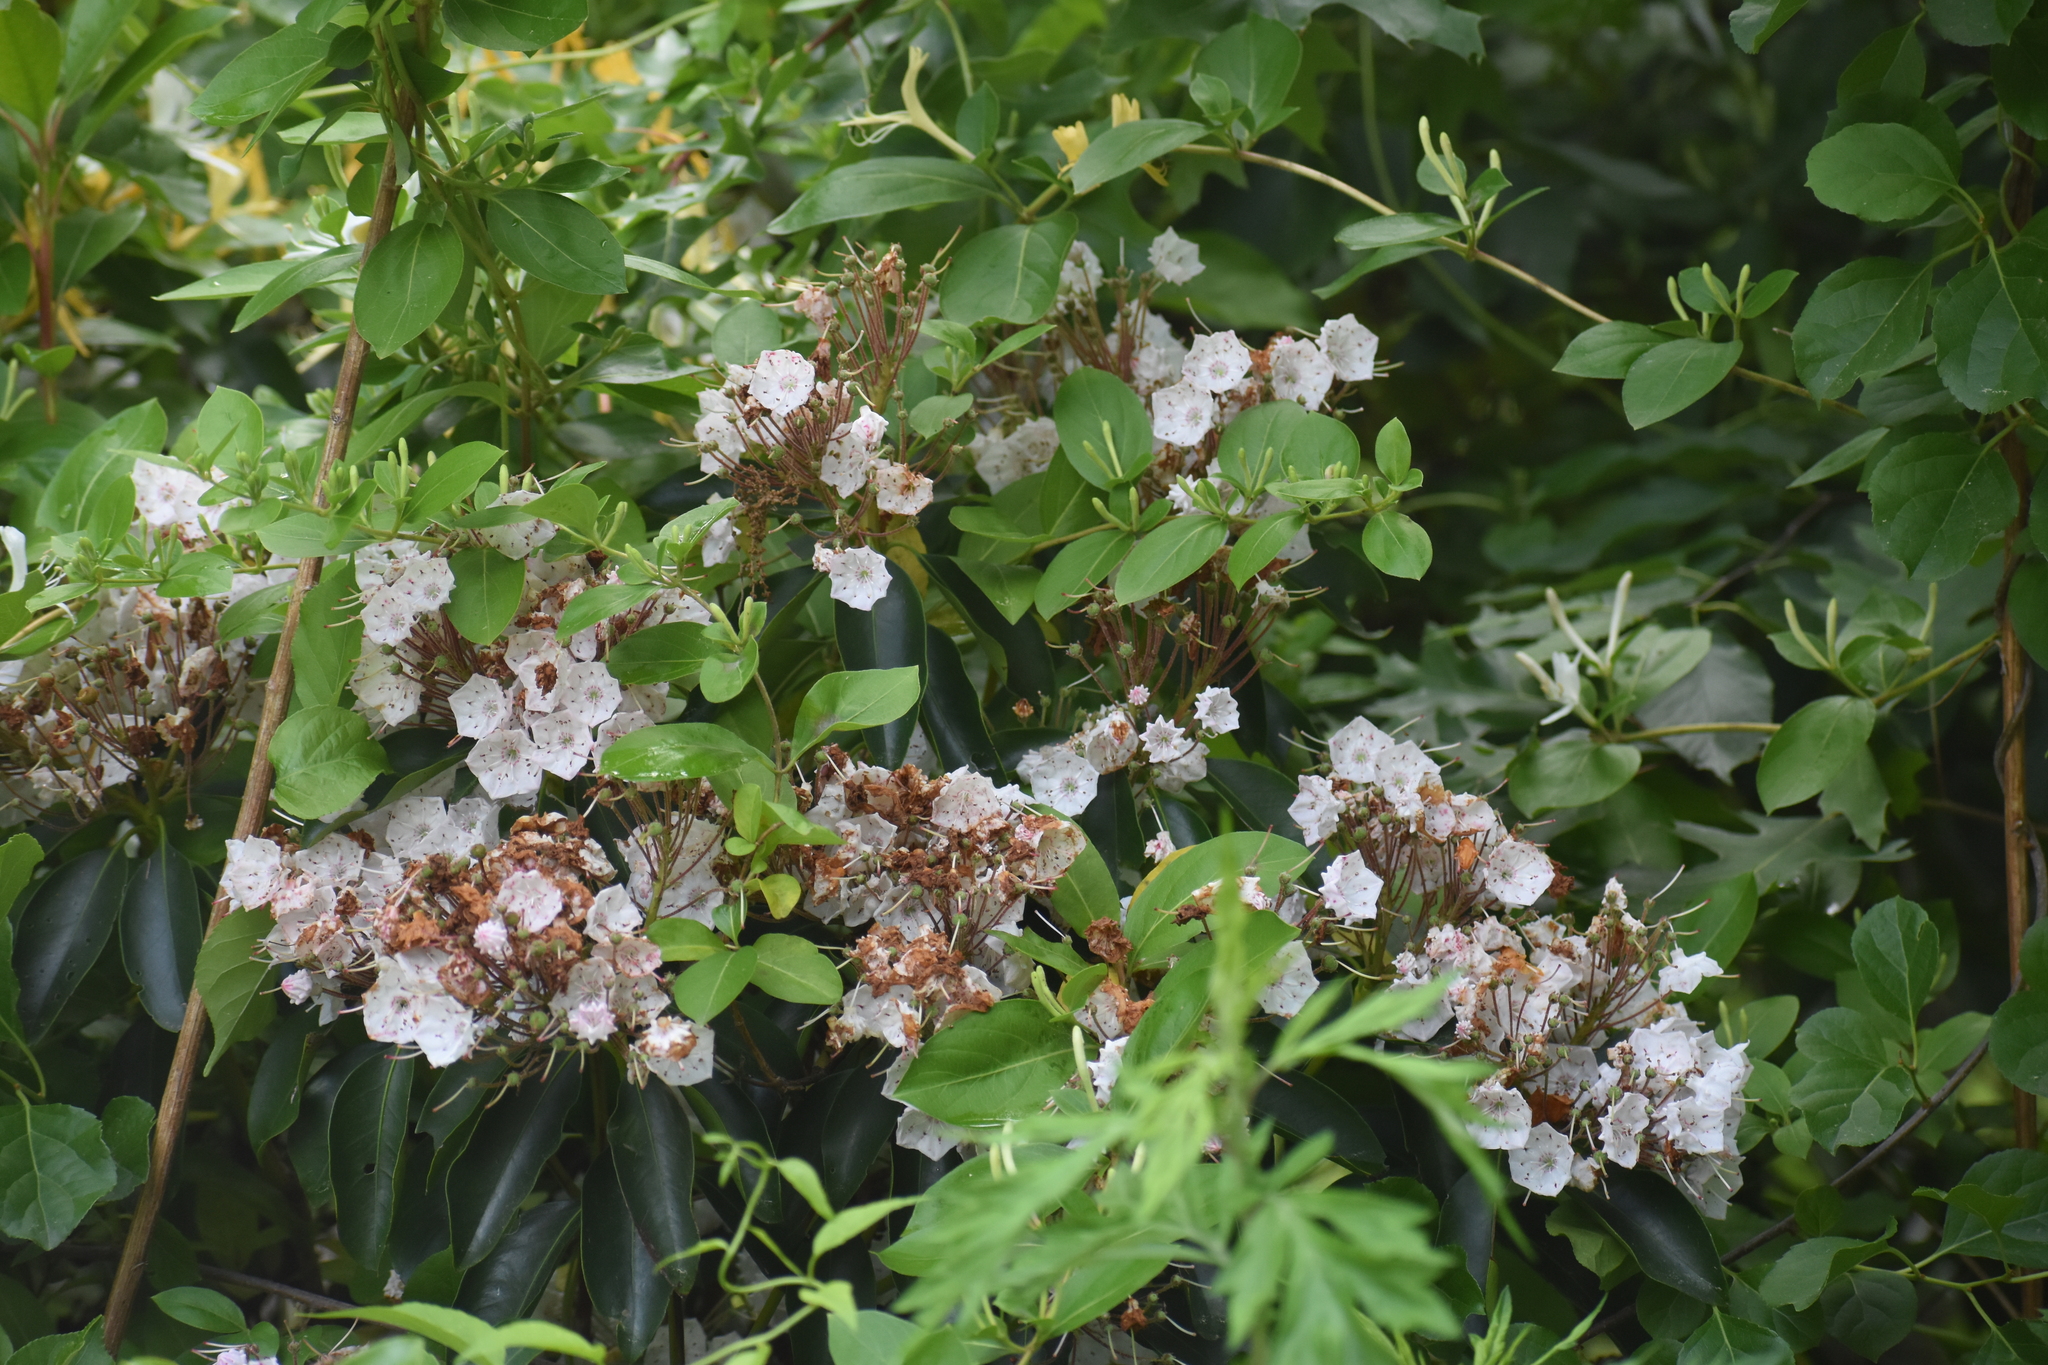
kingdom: Plantae
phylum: Tracheophyta
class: Magnoliopsida
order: Ericales
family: Ericaceae
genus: Kalmia
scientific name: Kalmia latifolia
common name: Mountain-laurel
